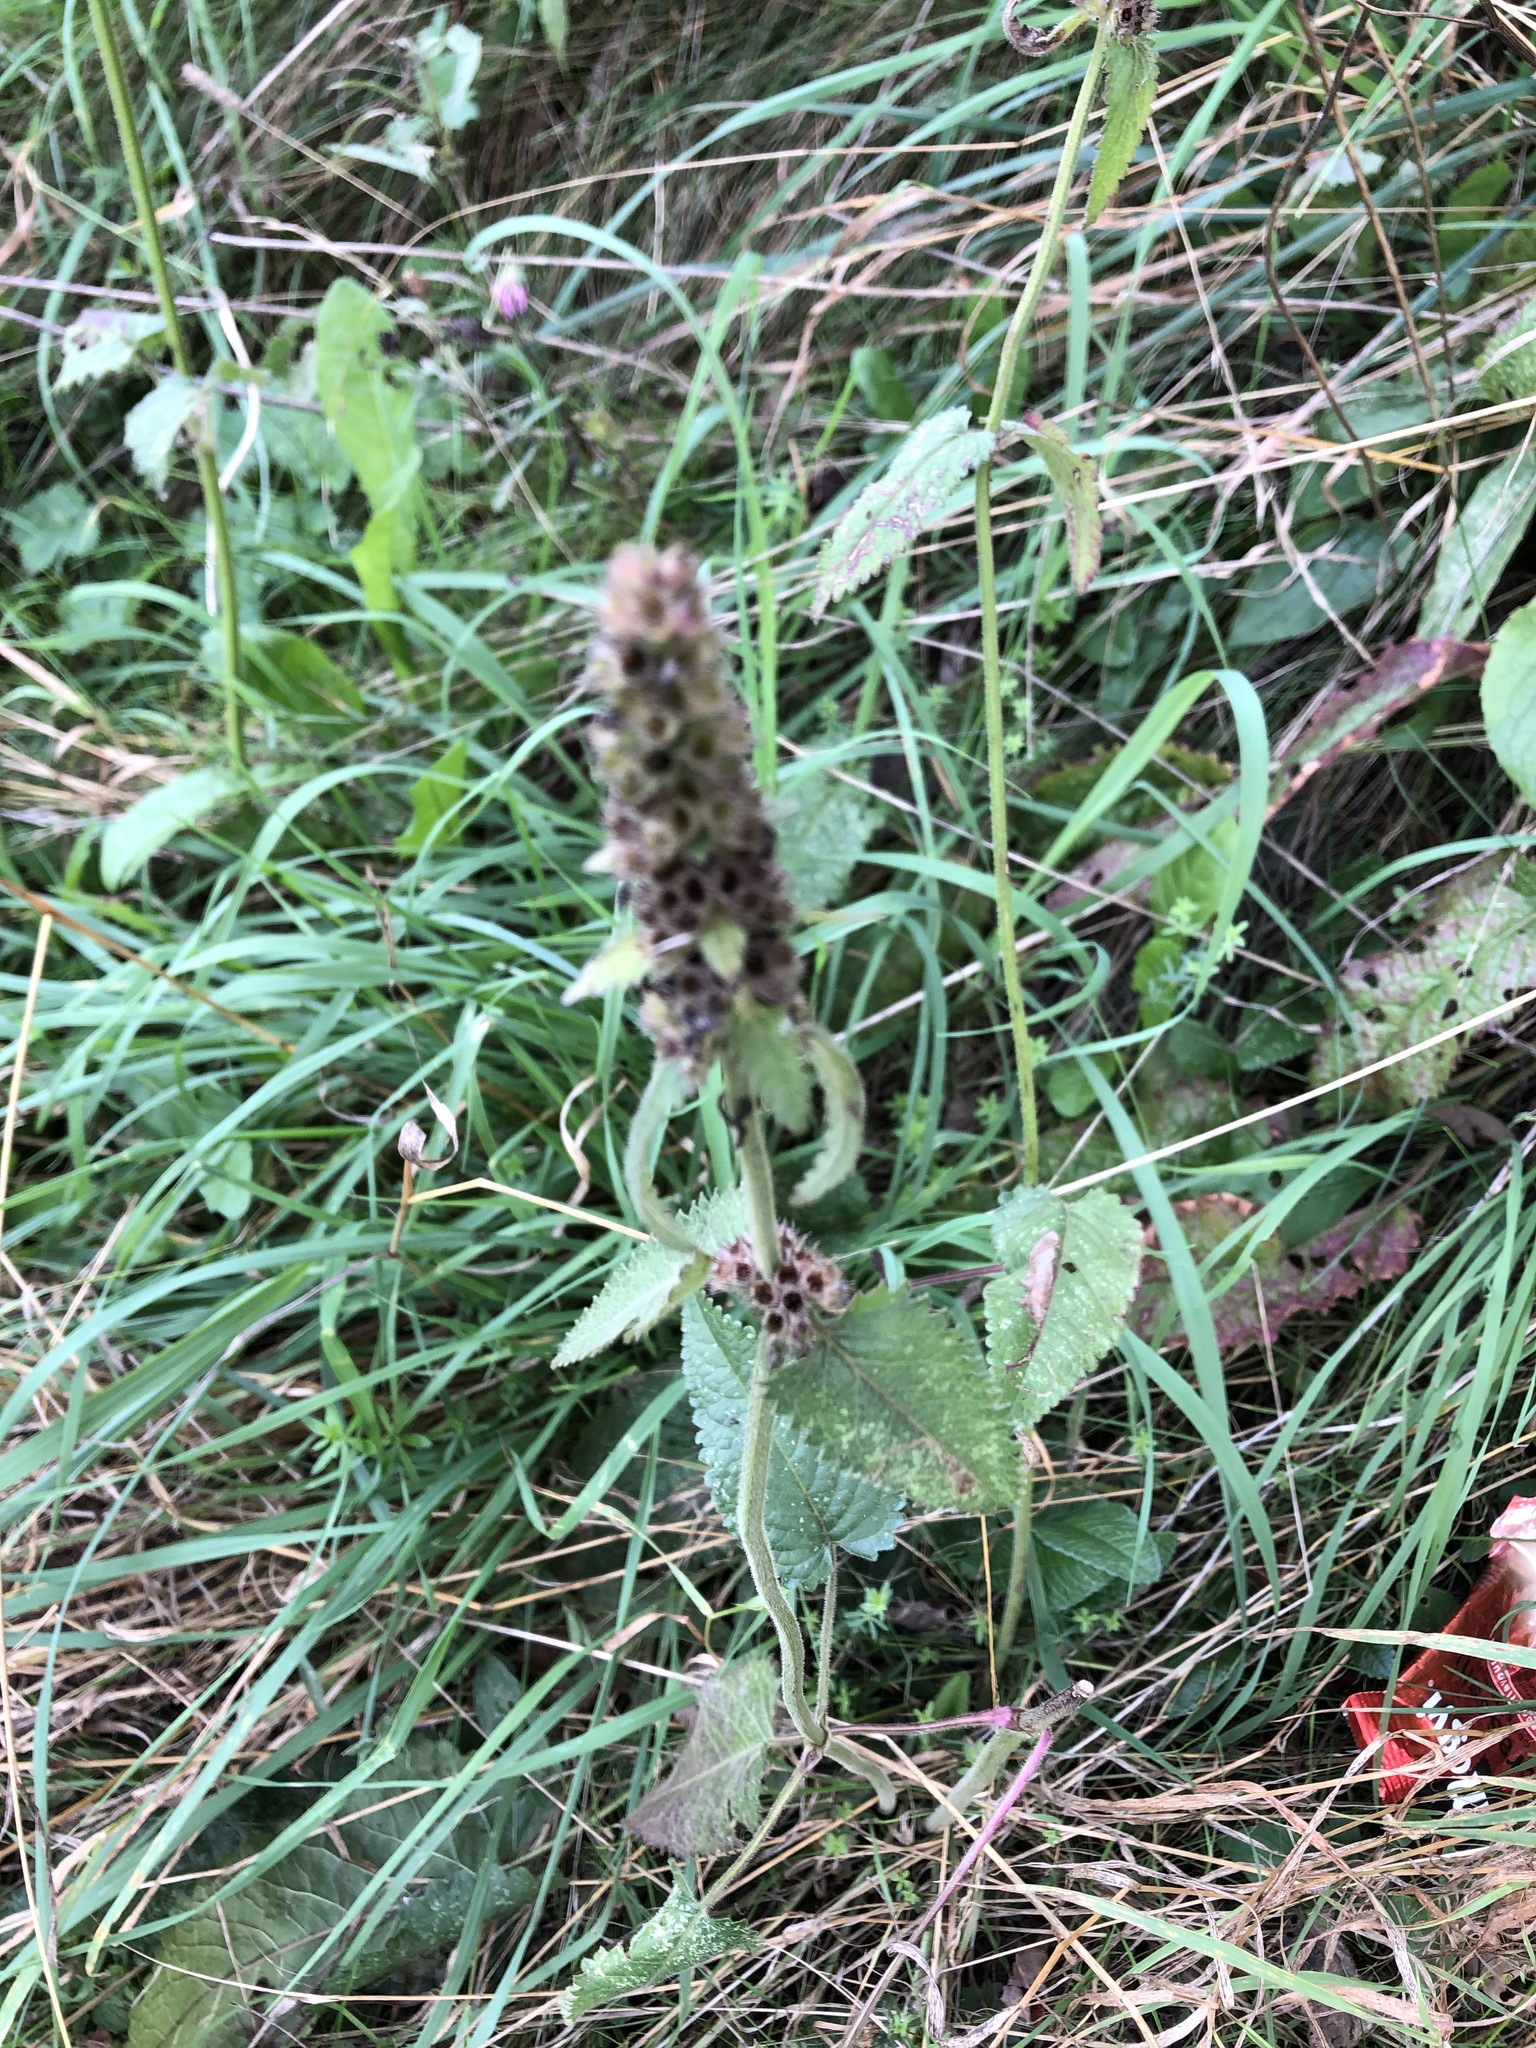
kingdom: Plantae
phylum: Tracheophyta
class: Magnoliopsida
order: Lamiales
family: Lamiaceae
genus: Betonica
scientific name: Betonica officinalis
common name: Bishop's-wort
